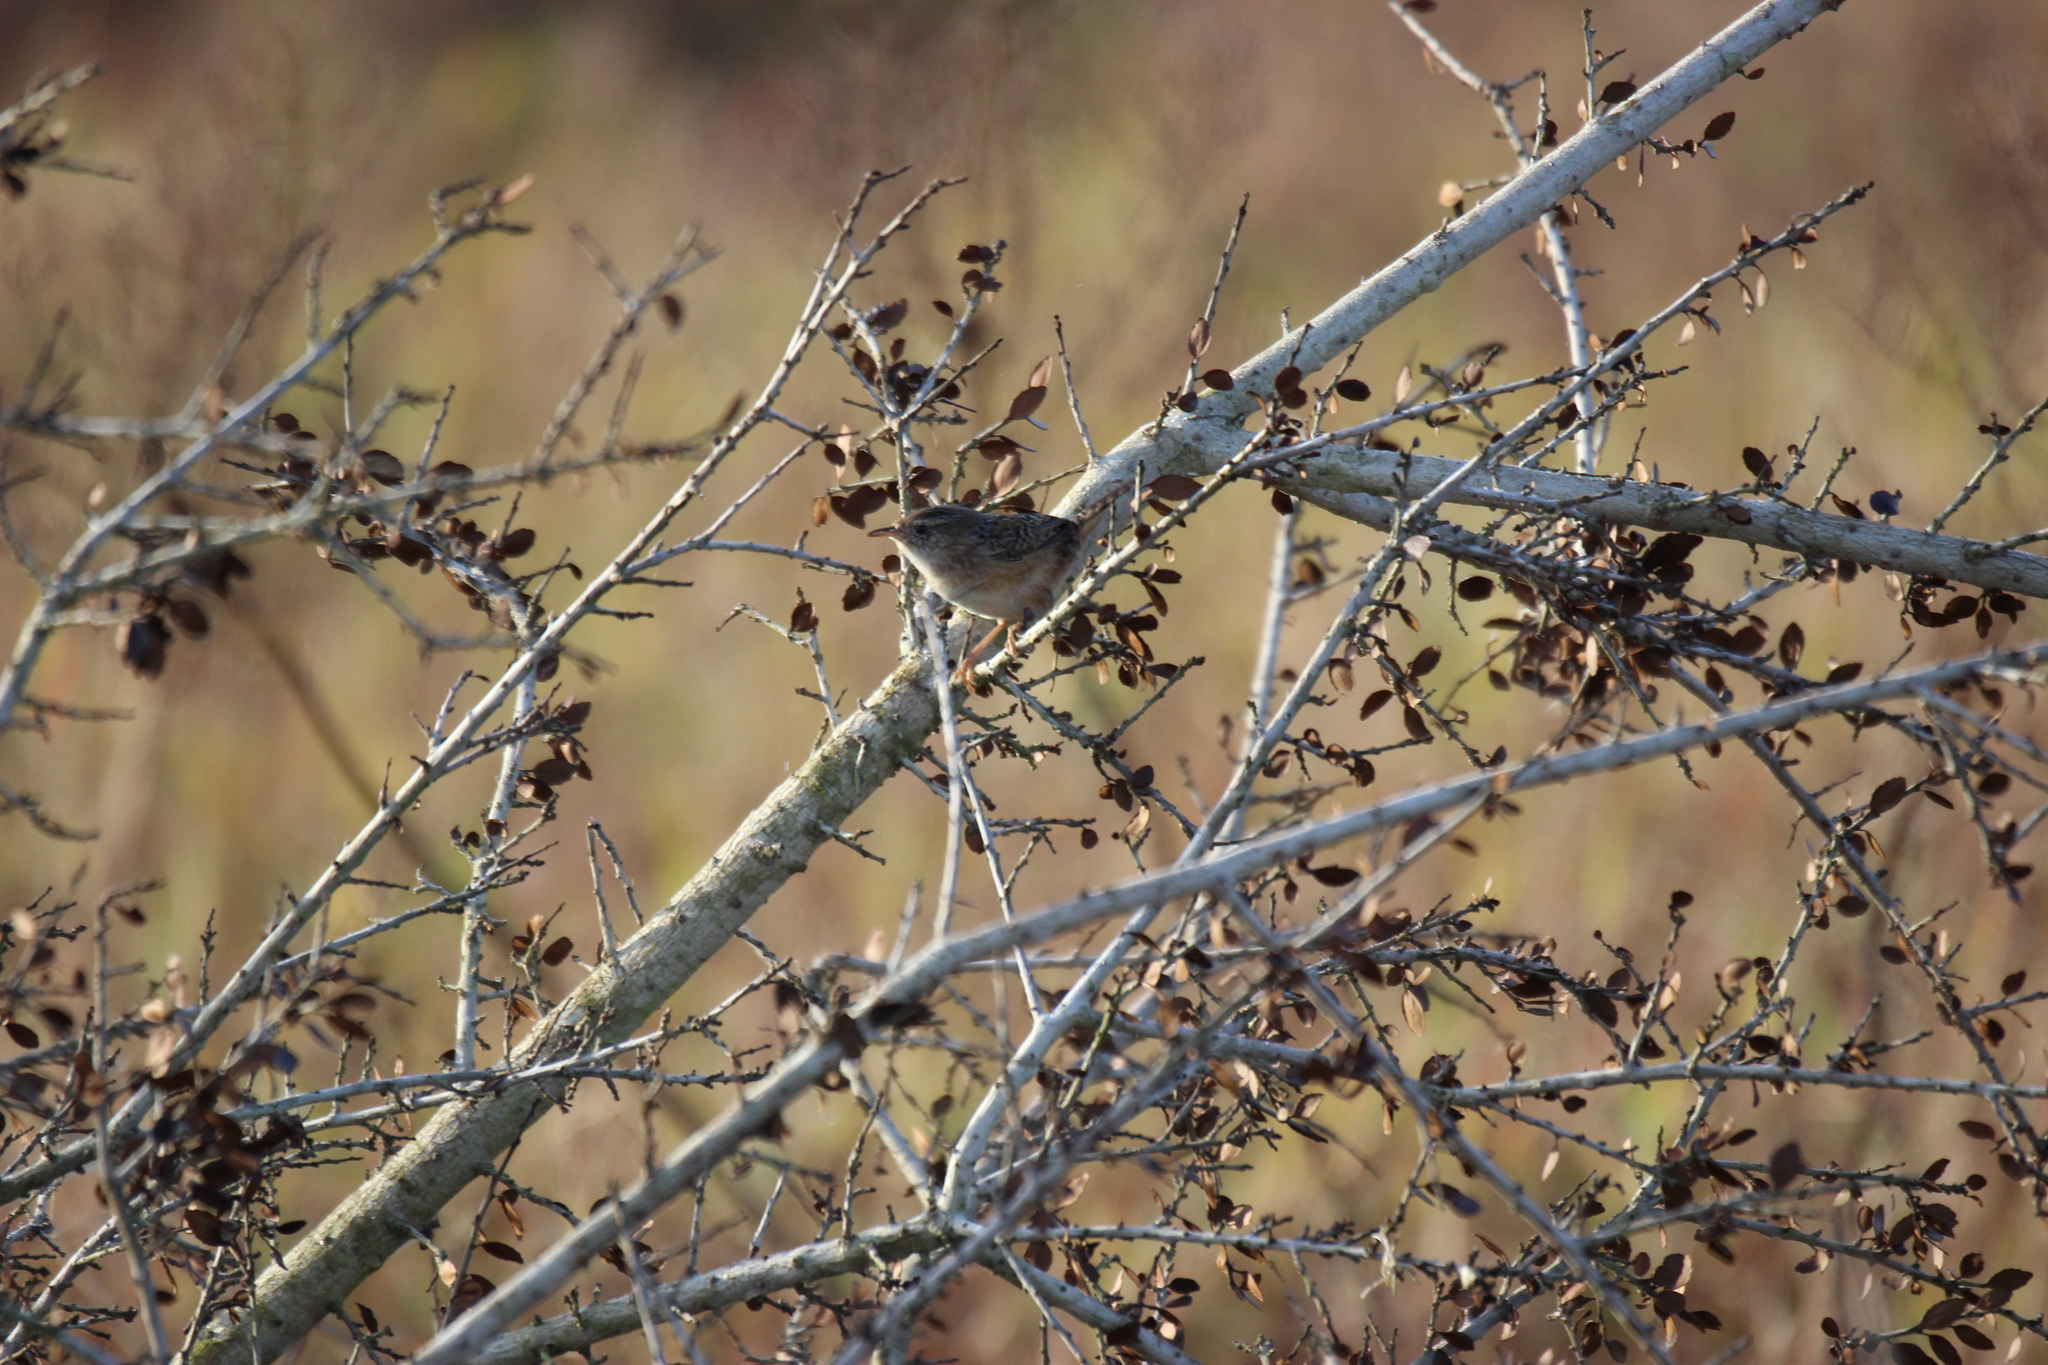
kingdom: Animalia
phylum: Chordata
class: Aves
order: Passeriformes
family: Troglodytidae
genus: Cistothorus
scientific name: Cistothorus platensis
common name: Sedge wren
